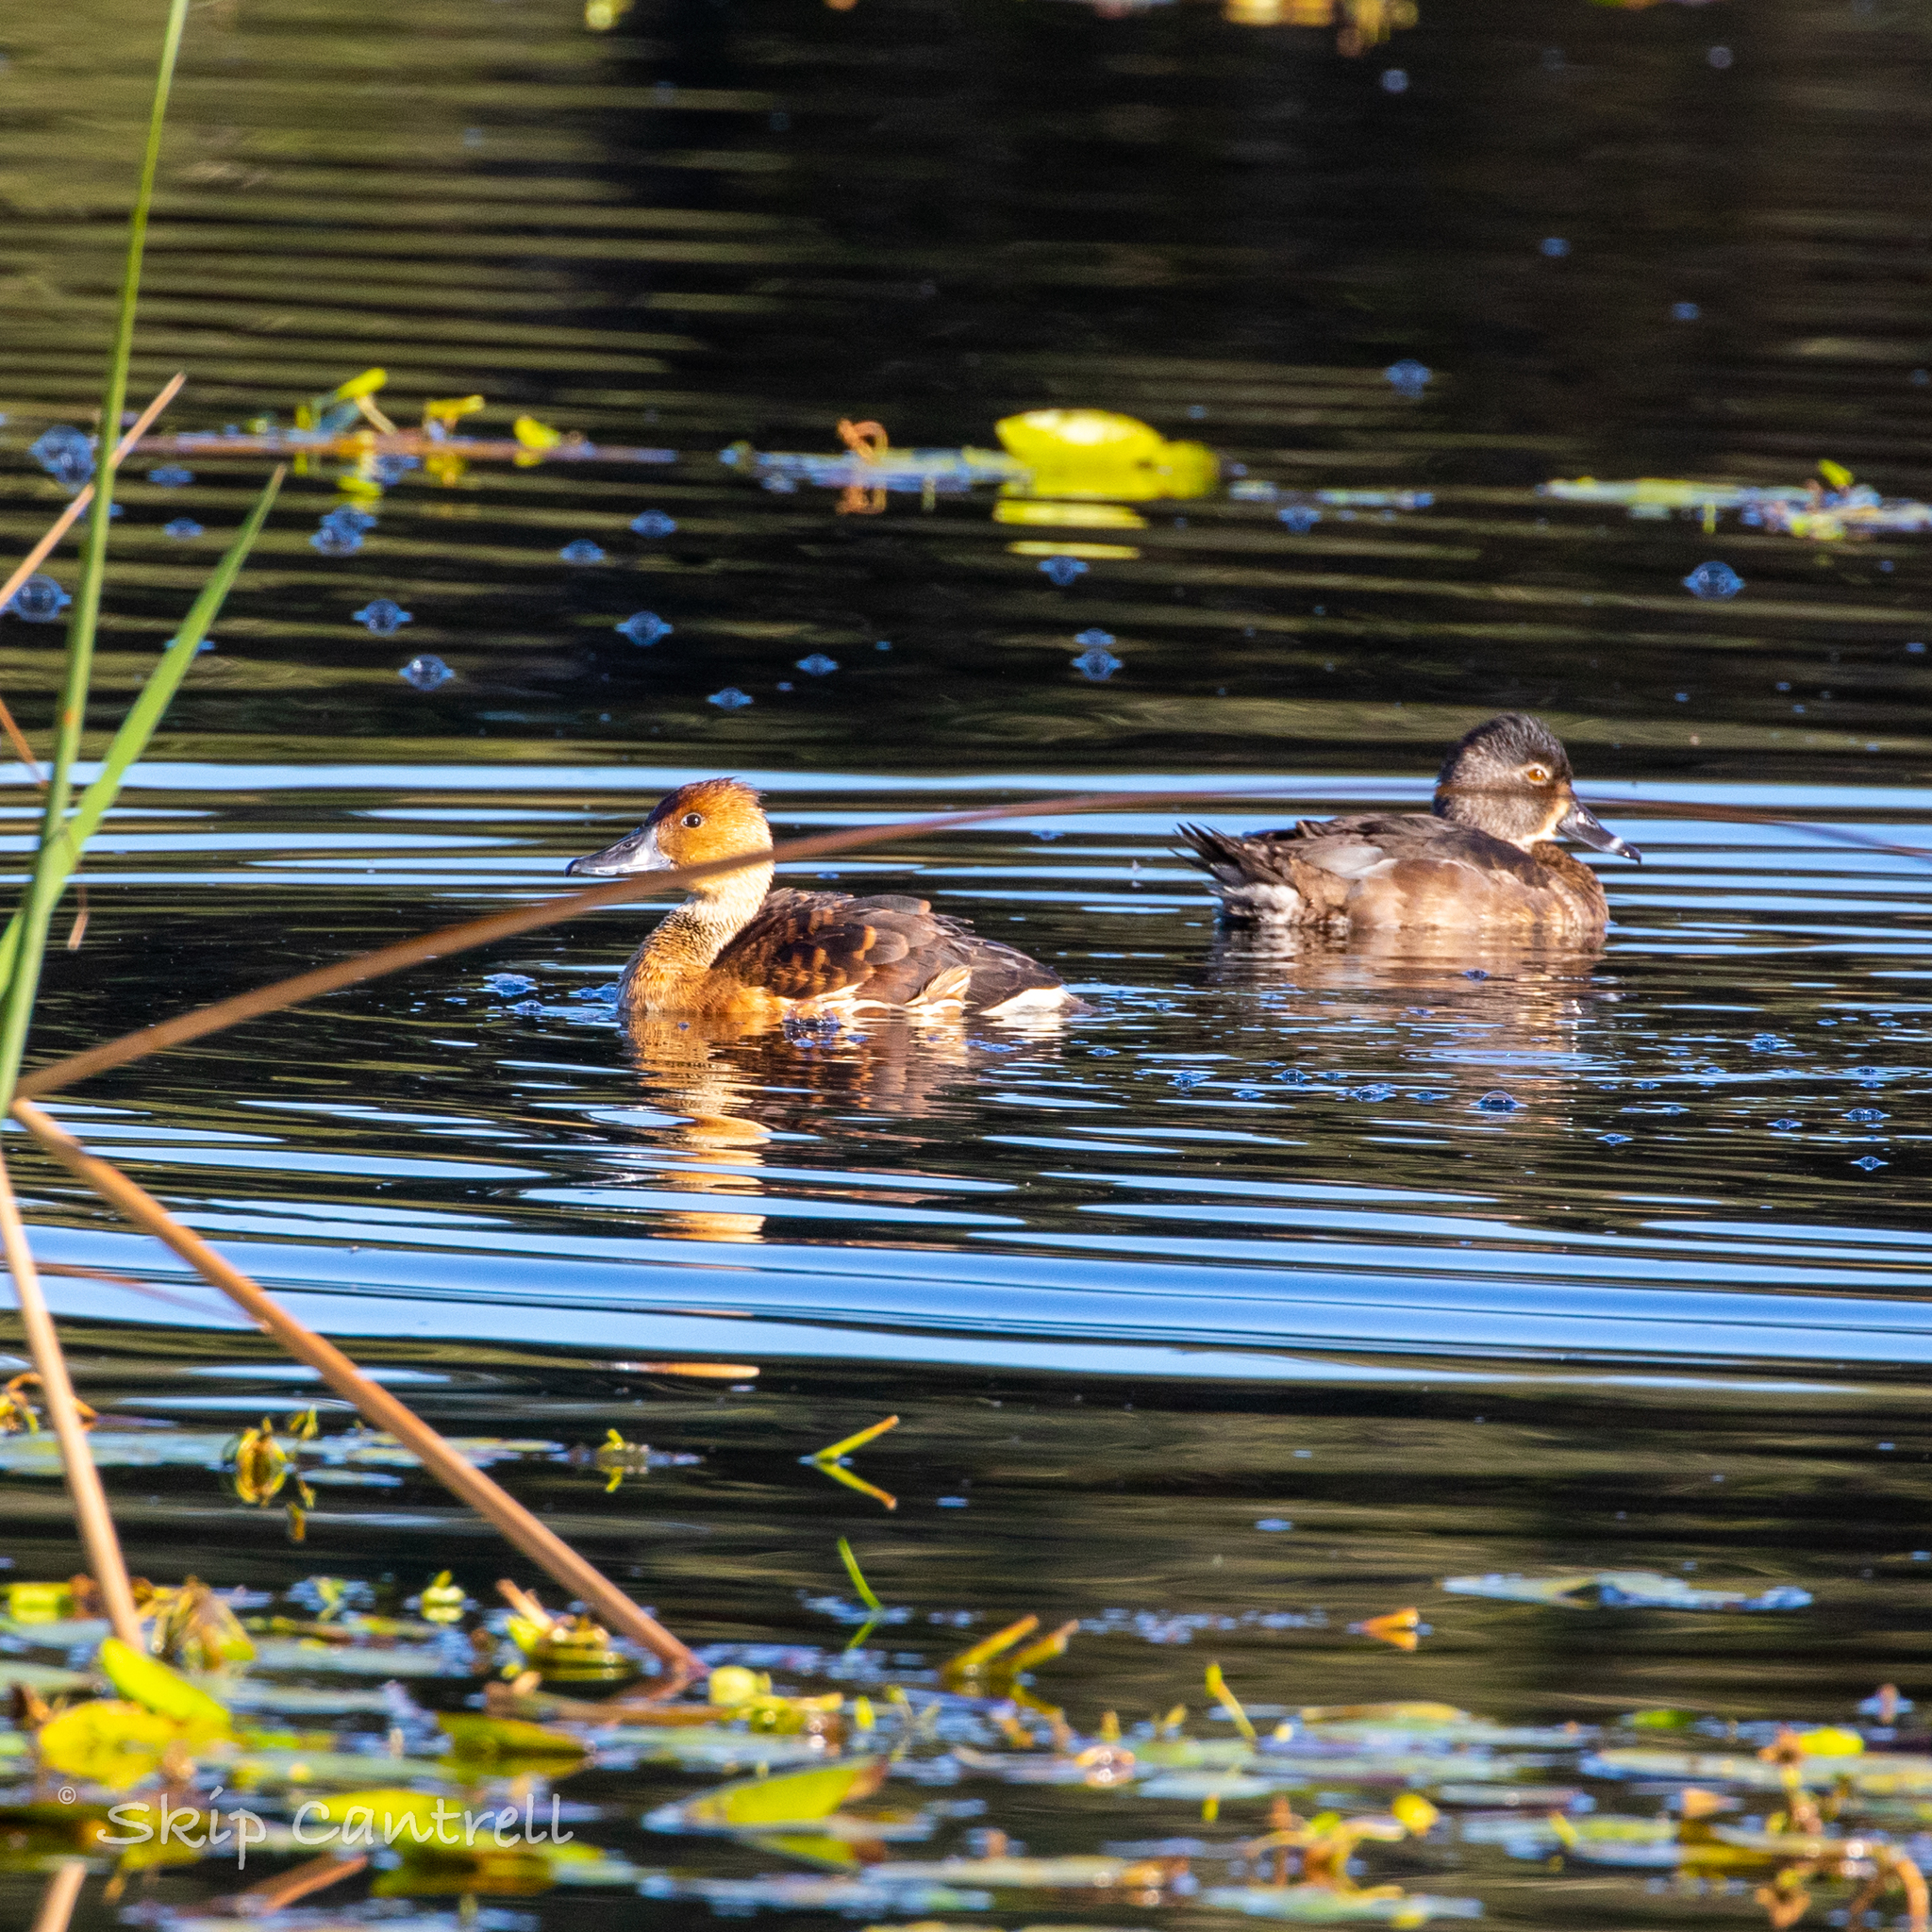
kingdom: Animalia
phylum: Chordata
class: Aves
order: Anseriformes
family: Anatidae
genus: Dendrocygna
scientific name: Dendrocygna bicolor
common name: Fulvous whistling duck
